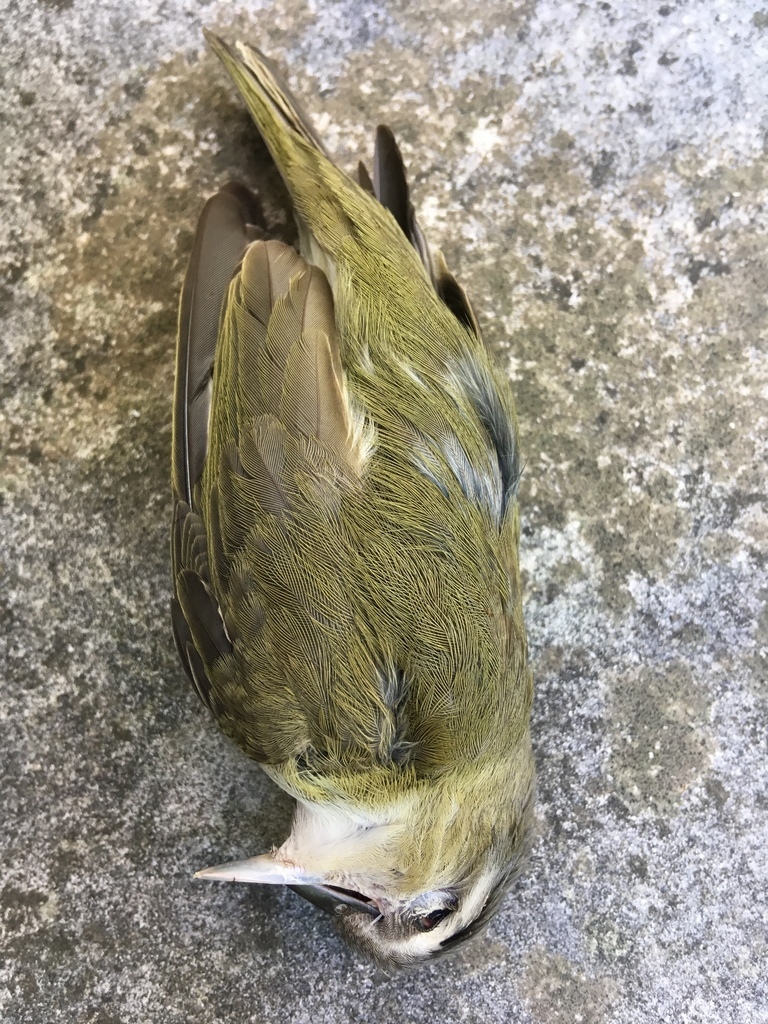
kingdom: Animalia
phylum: Chordata
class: Aves
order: Passeriformes
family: Vireonidae
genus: Vireo
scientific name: Vireo olivaceus
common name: Red-eyed vireo
